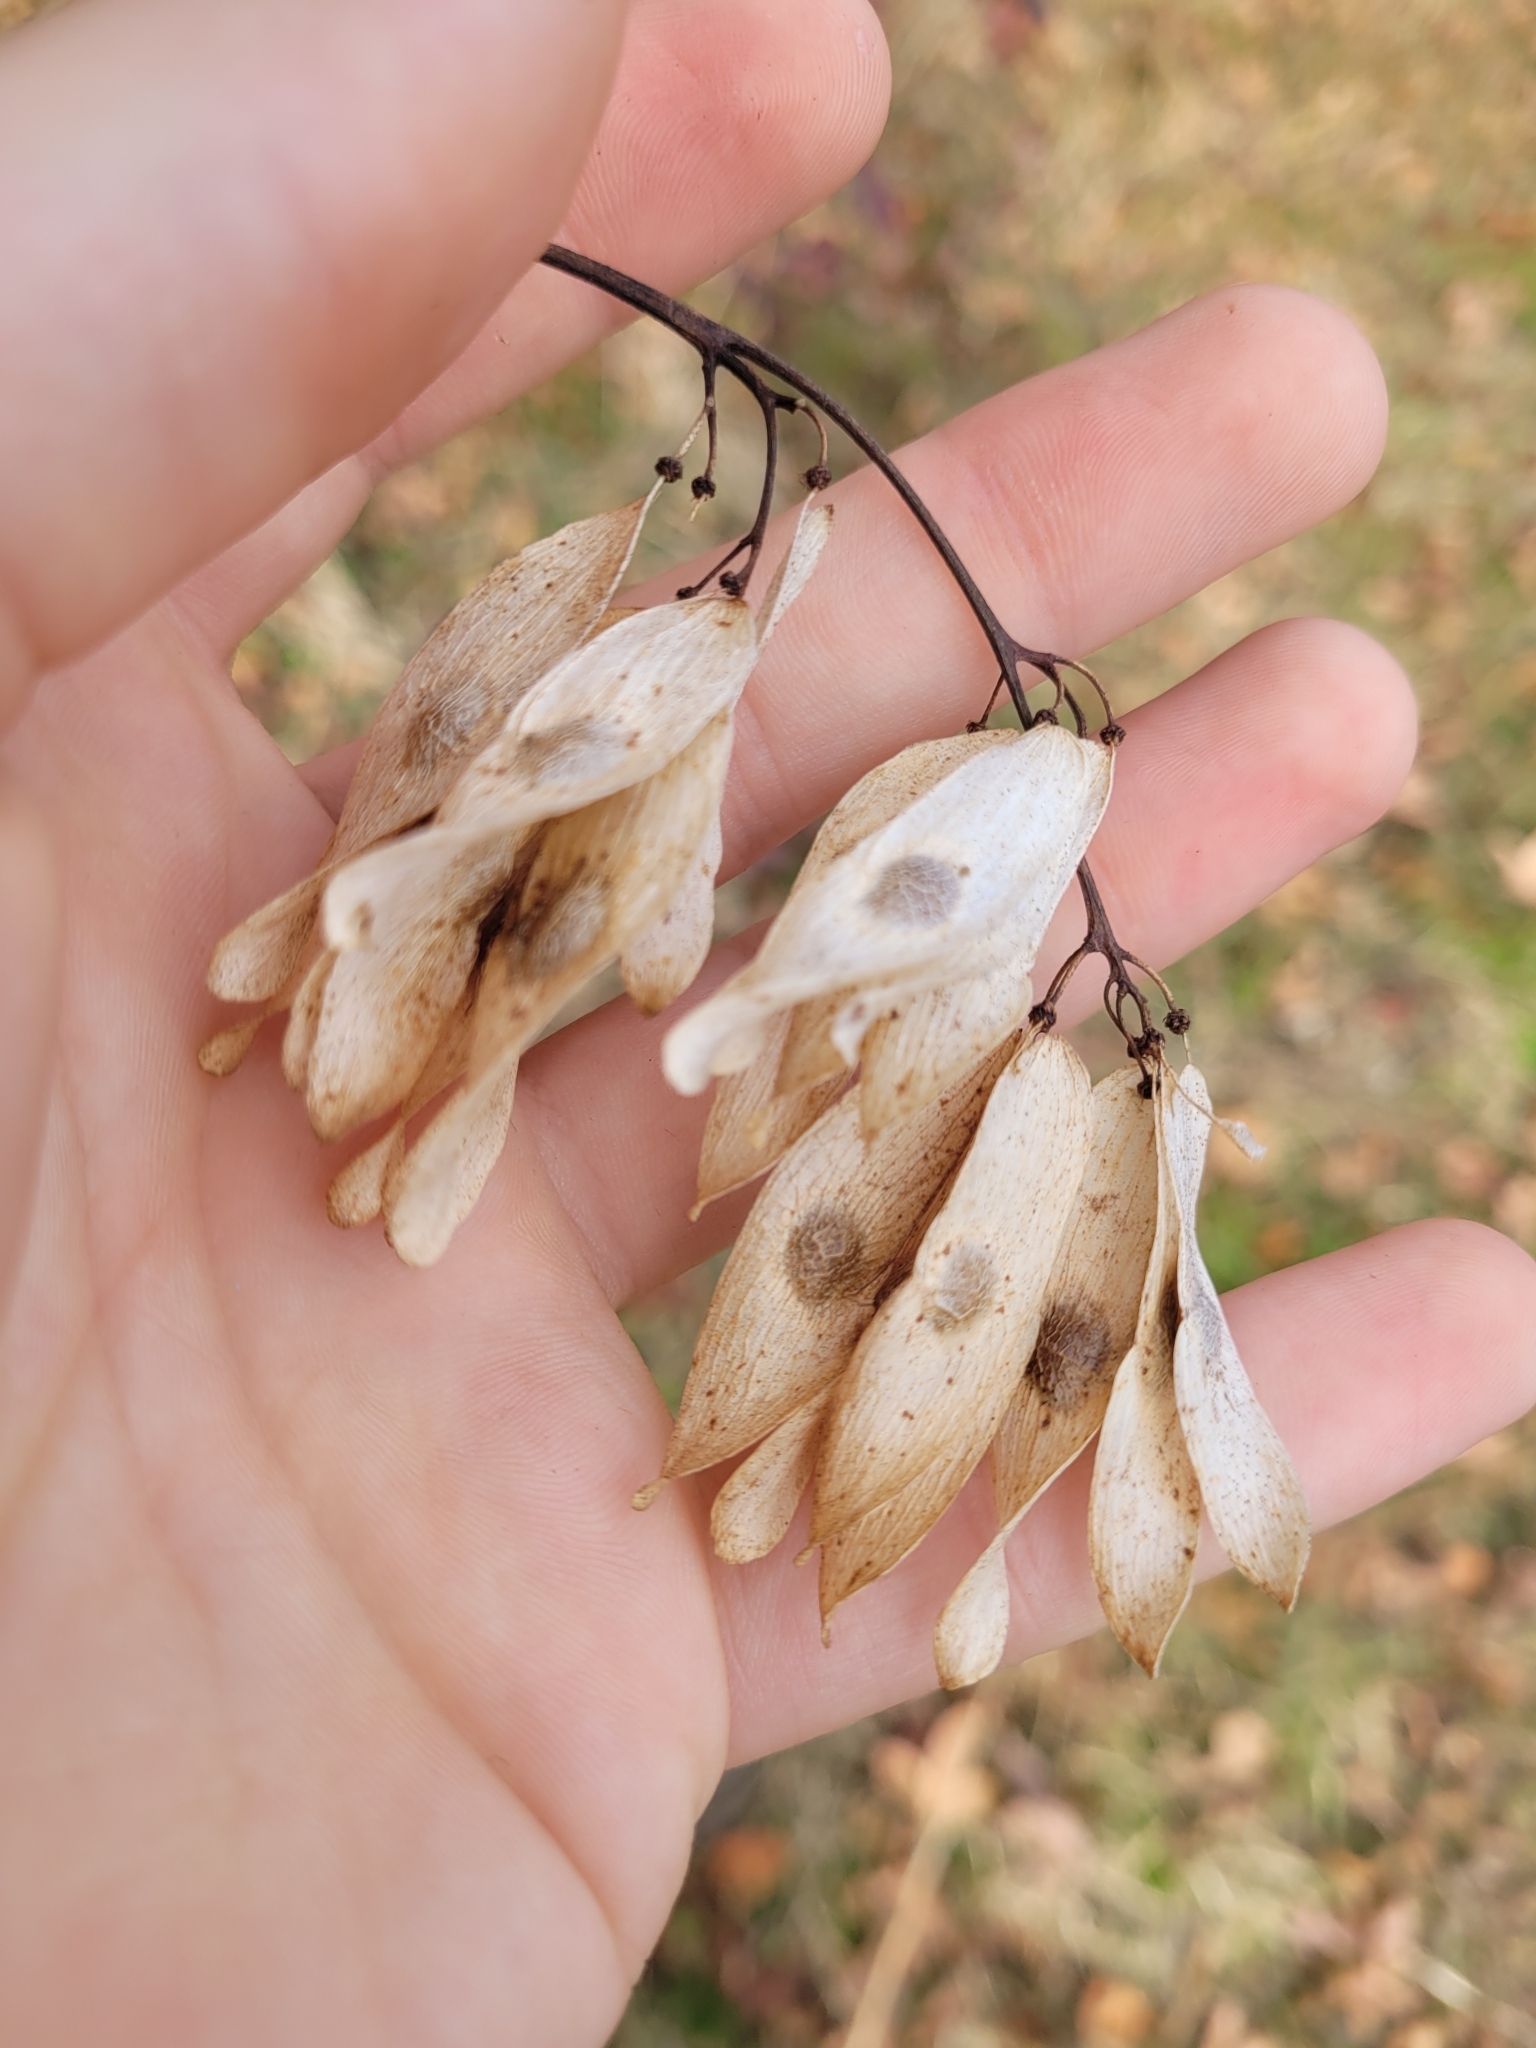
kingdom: Plantae
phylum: Tracheophyta
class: Magnoliopsida
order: Sapindales
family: Simaroubaceae
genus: Ailanthus
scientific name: Ailanthus altissima
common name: Tree-of-heaven
